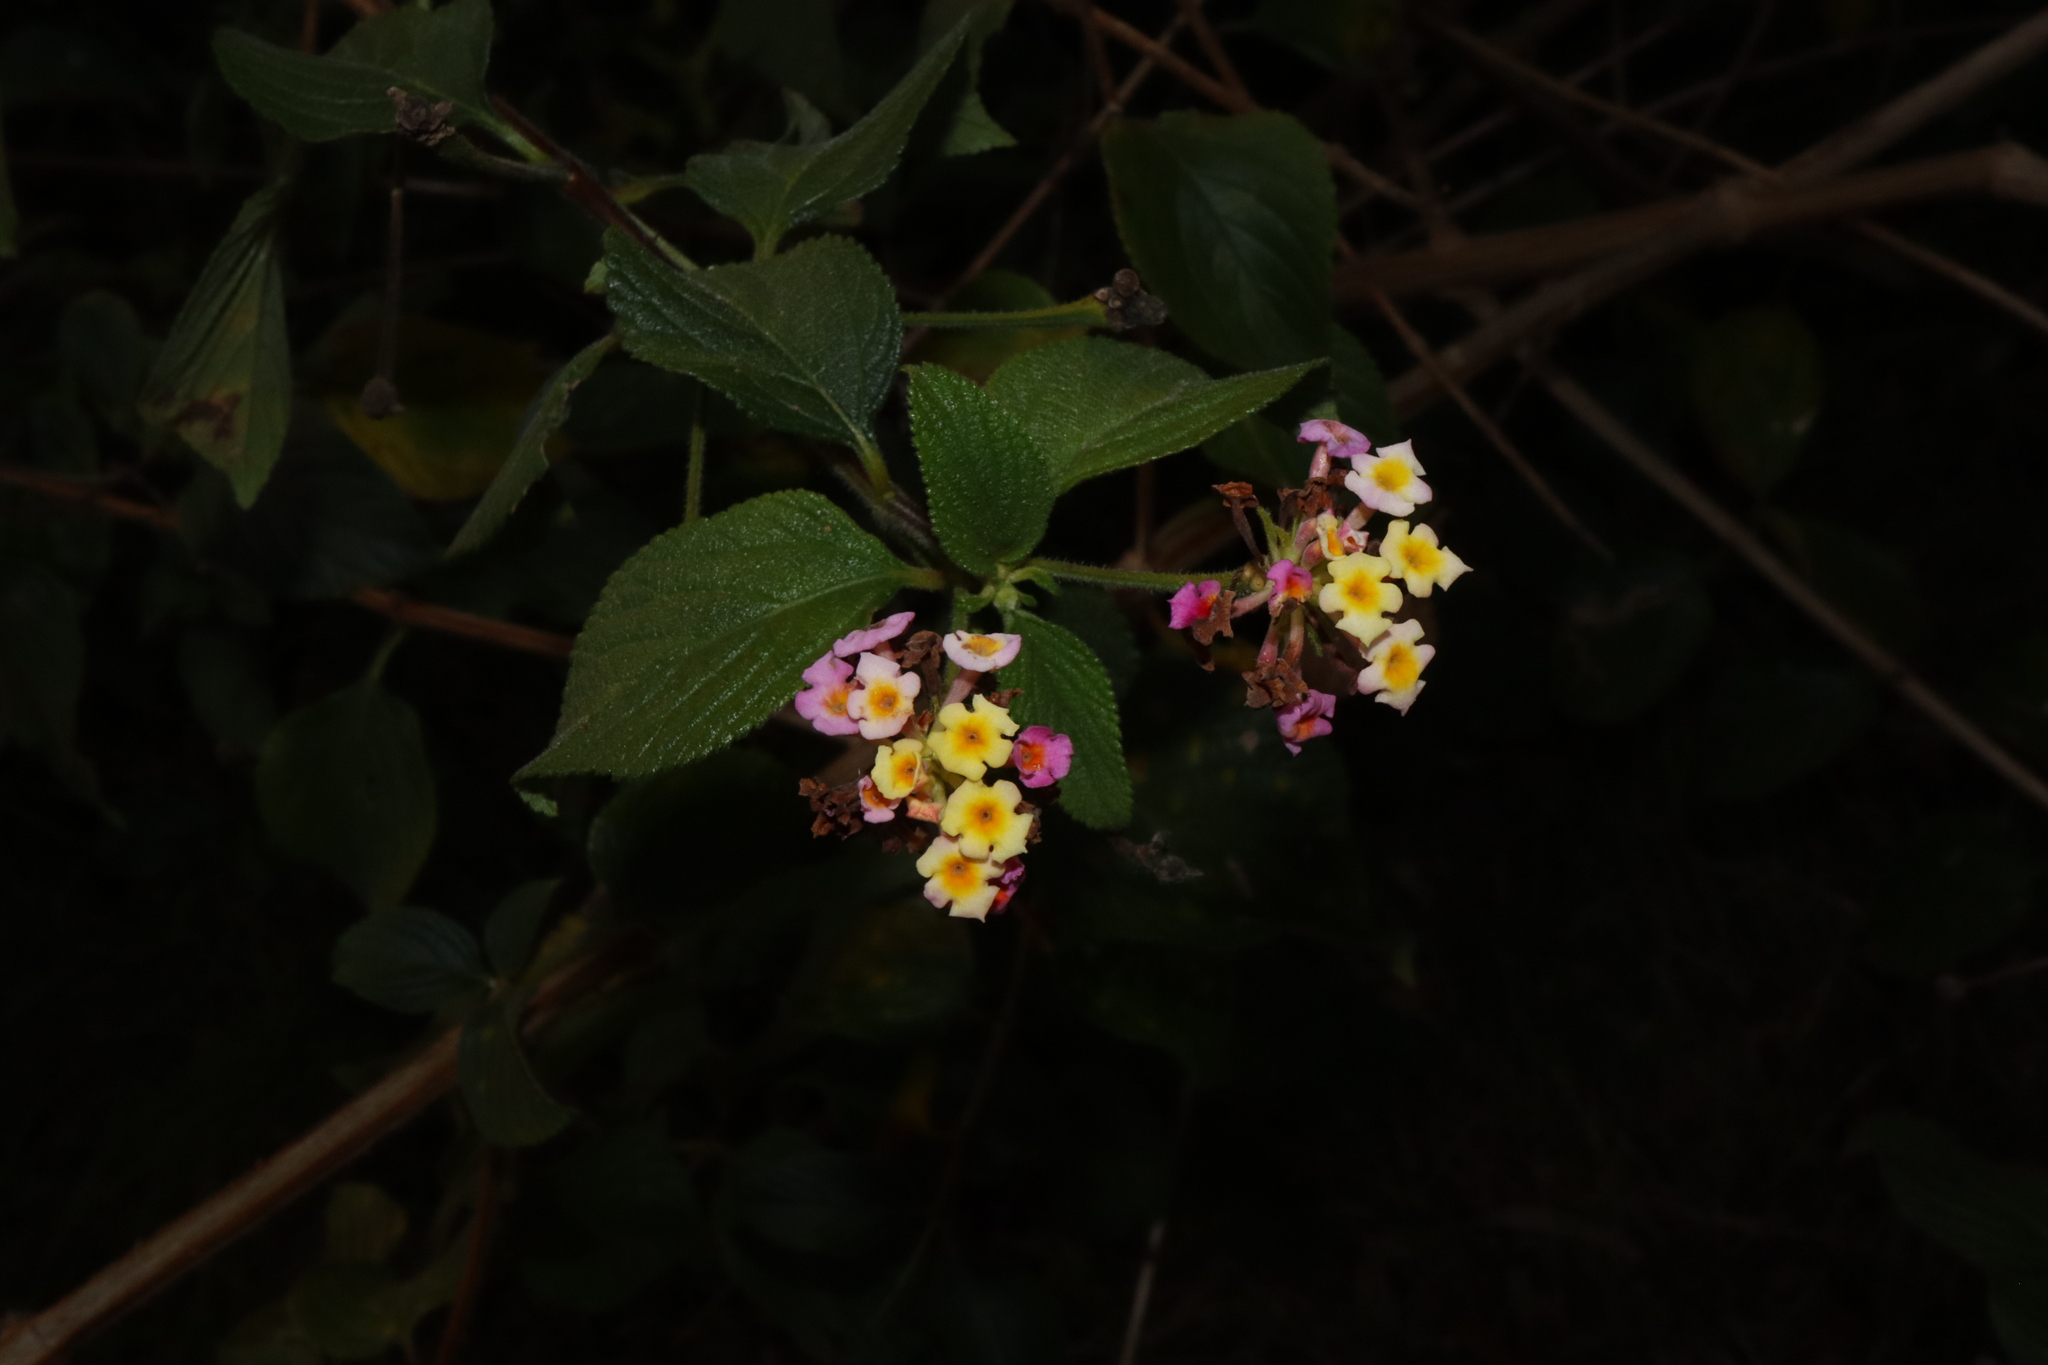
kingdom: Plantae
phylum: Tracheophyta
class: Magnoliopsida
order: Lamiales
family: Verbenaceae
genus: Lantana
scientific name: Lantana camara
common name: Lantana
